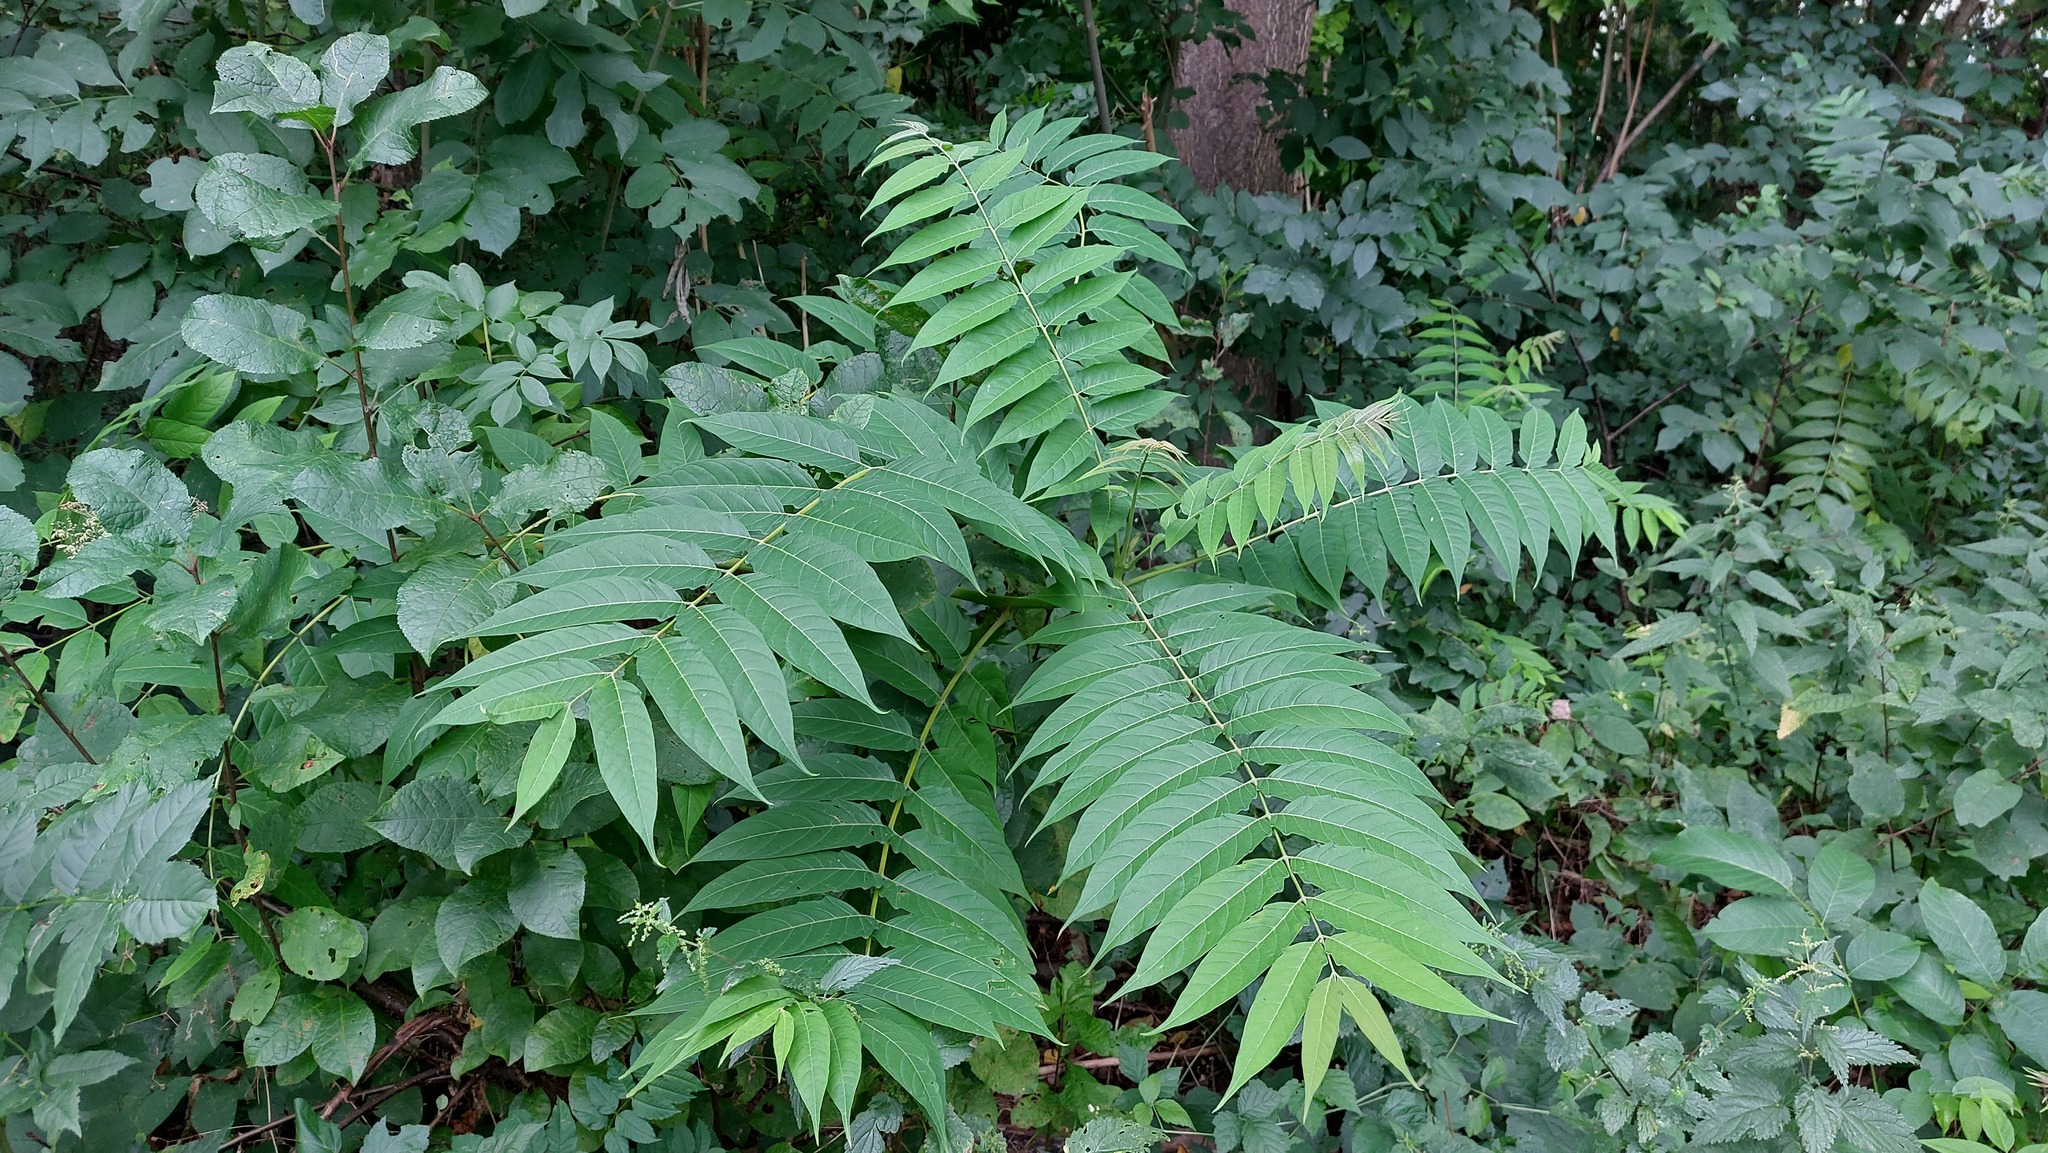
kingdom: Plantae
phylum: Tracheophyta
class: Magnoliopsida
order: Sapindales
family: Simaroubaceae
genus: Ailanthus
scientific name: Ailanthus altissima
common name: Tree-of-heaven
